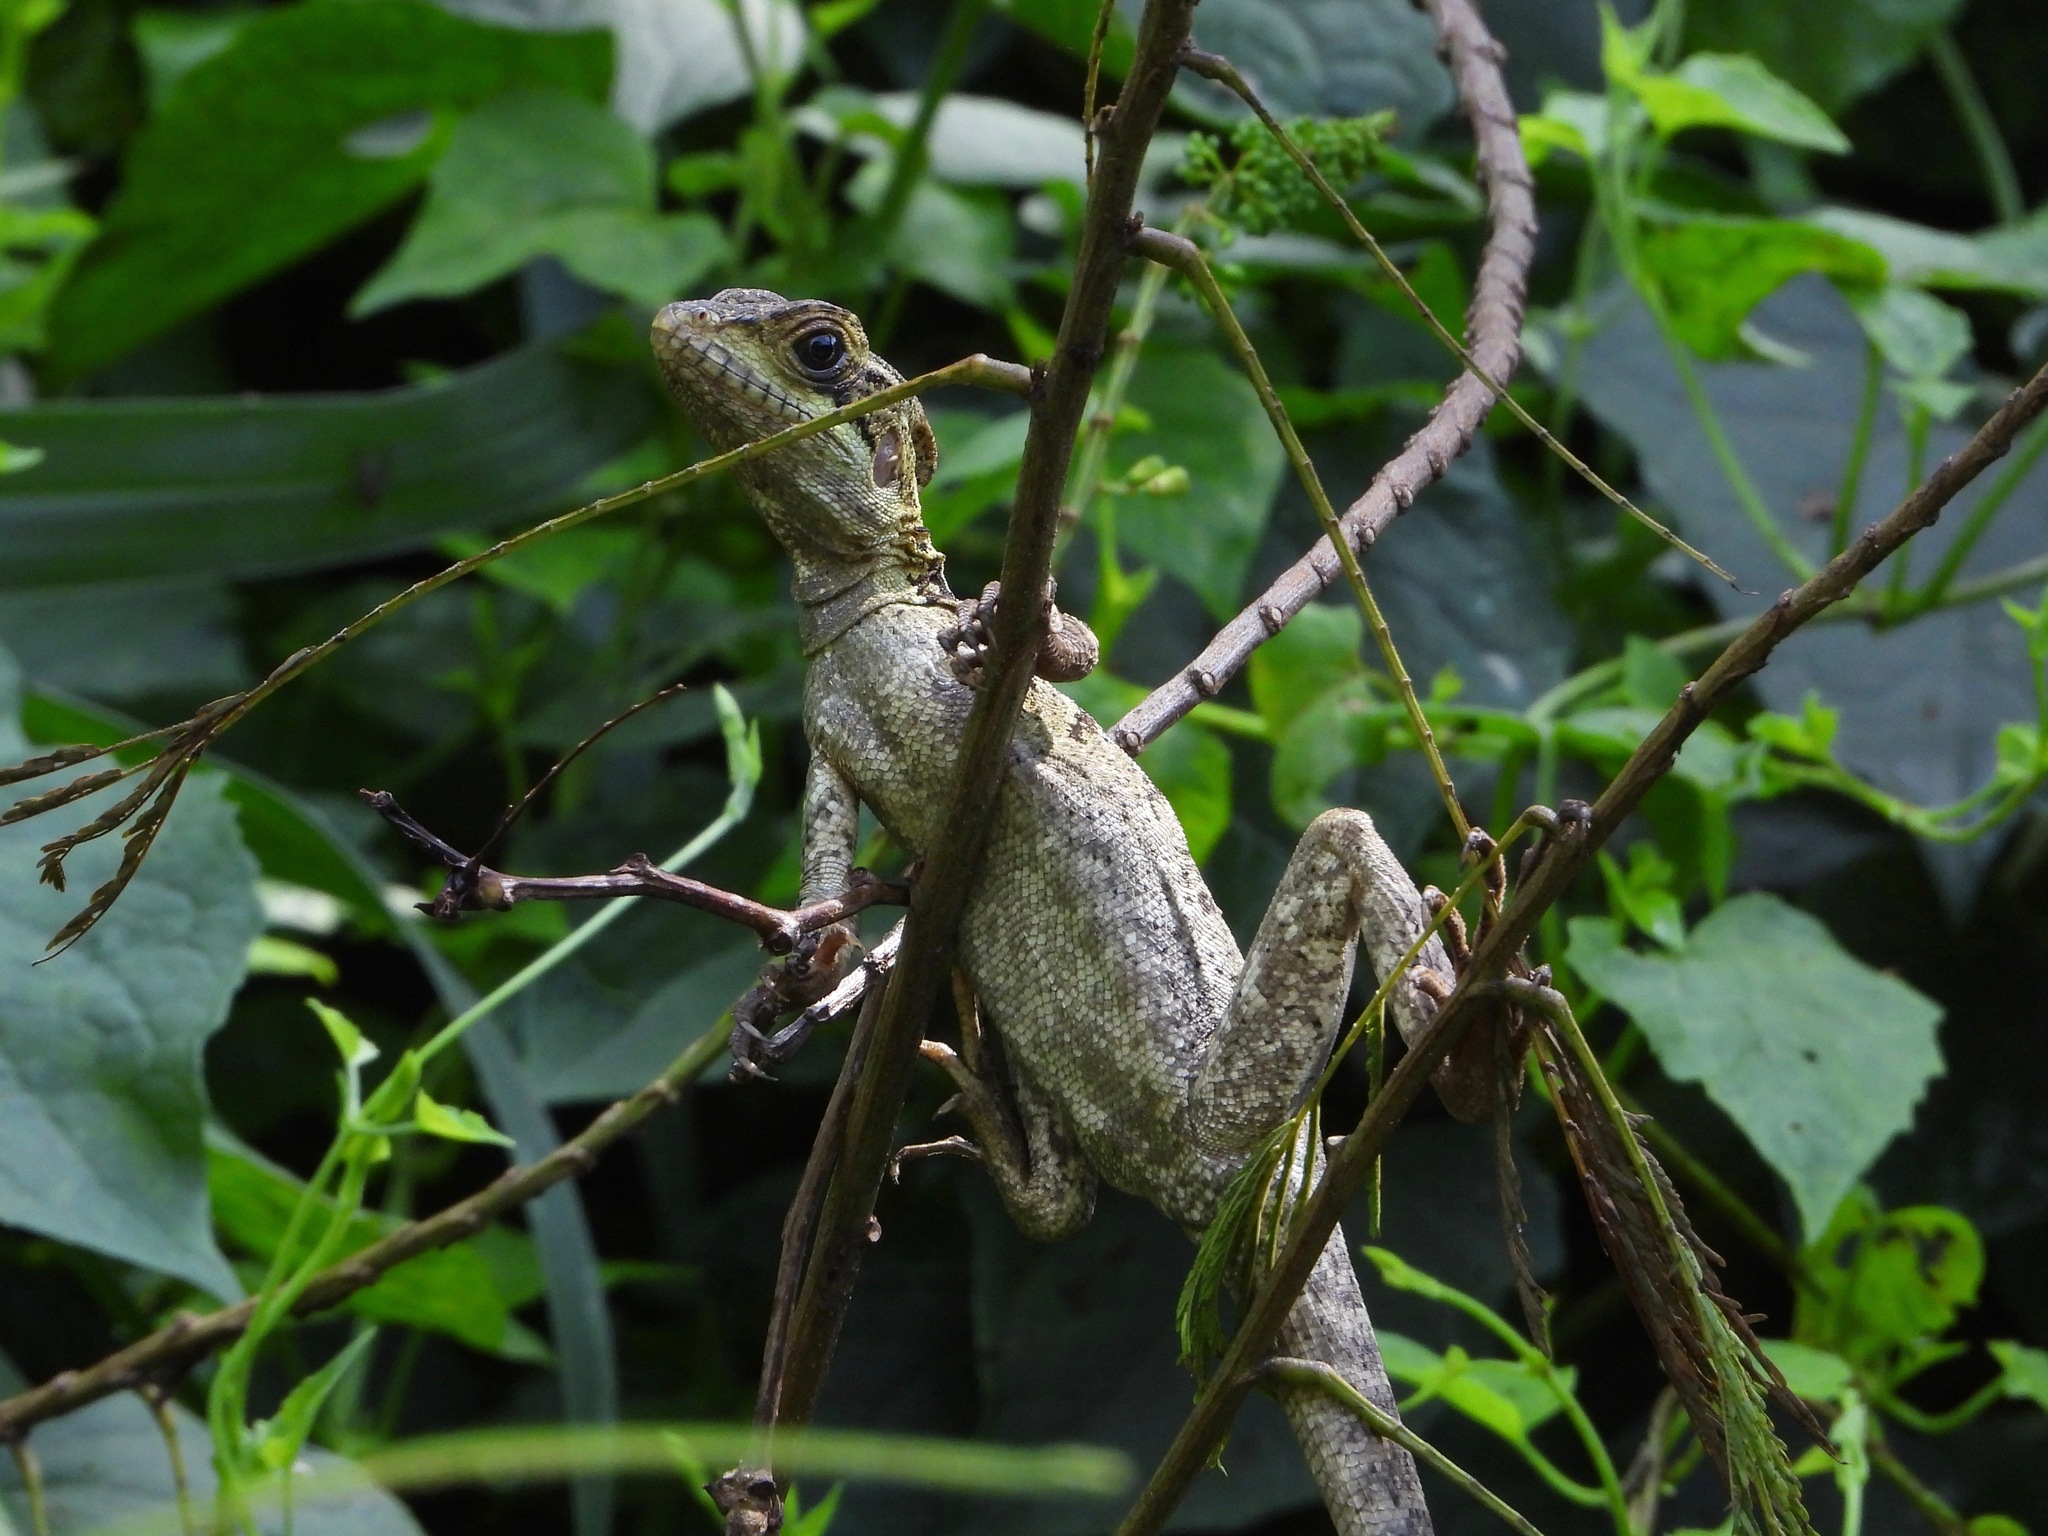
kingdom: Animalia
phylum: Chordata
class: Squamata
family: Corytophanidae
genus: Basiliscus
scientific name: Basiliscus vittatus
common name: Brown basilisk
